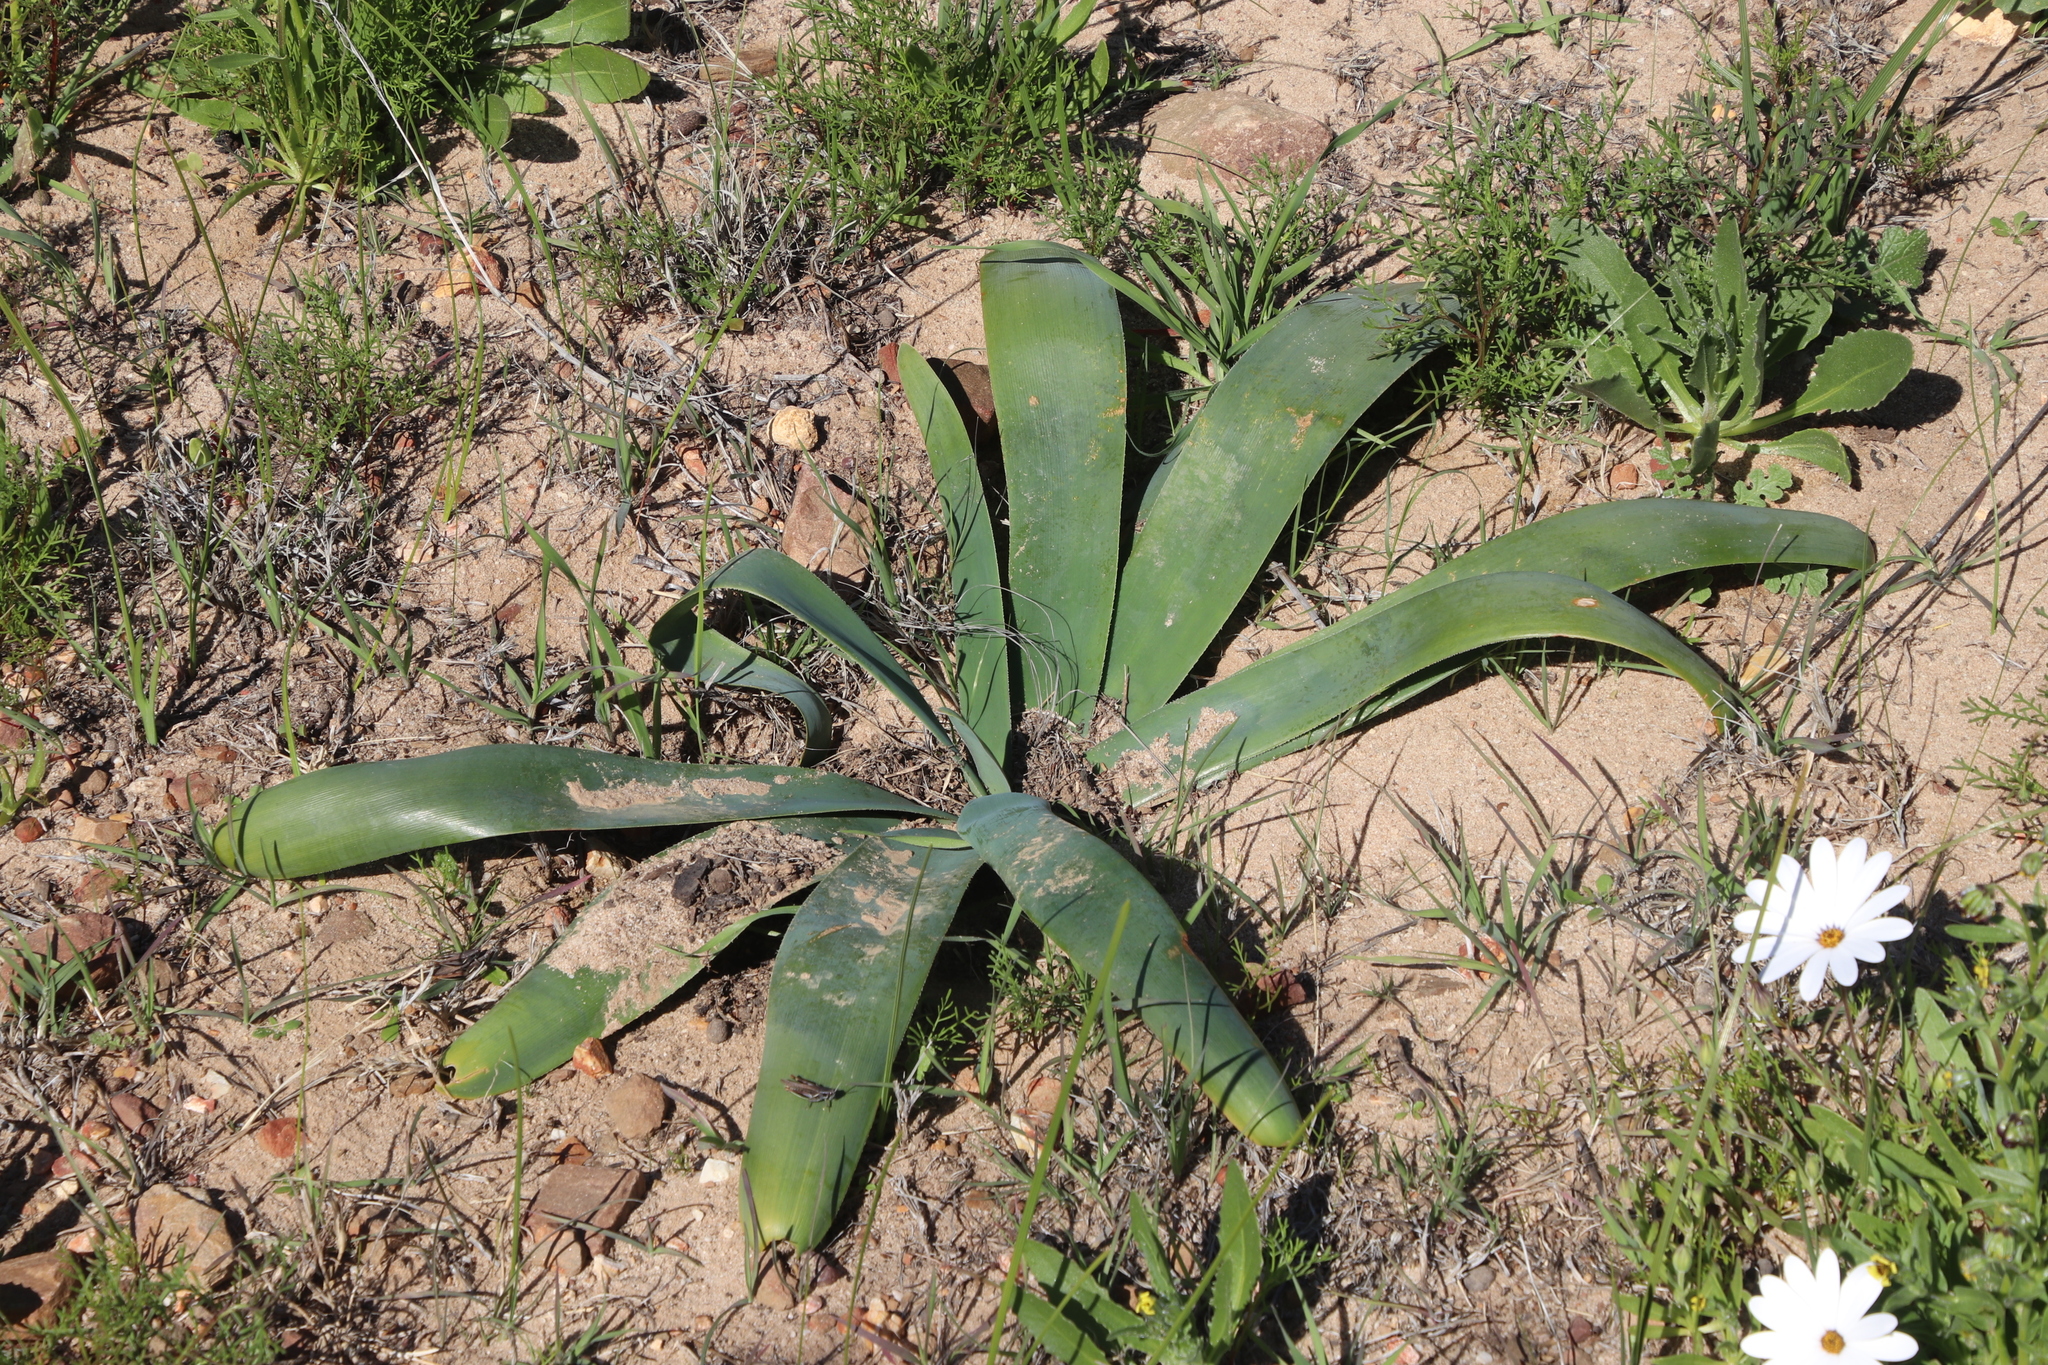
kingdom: Plantae
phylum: Tracheophyta
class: Liliopsida
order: Asparagales
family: Amaryllidaceae
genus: Ammocharis
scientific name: Ammocharis longifolia
